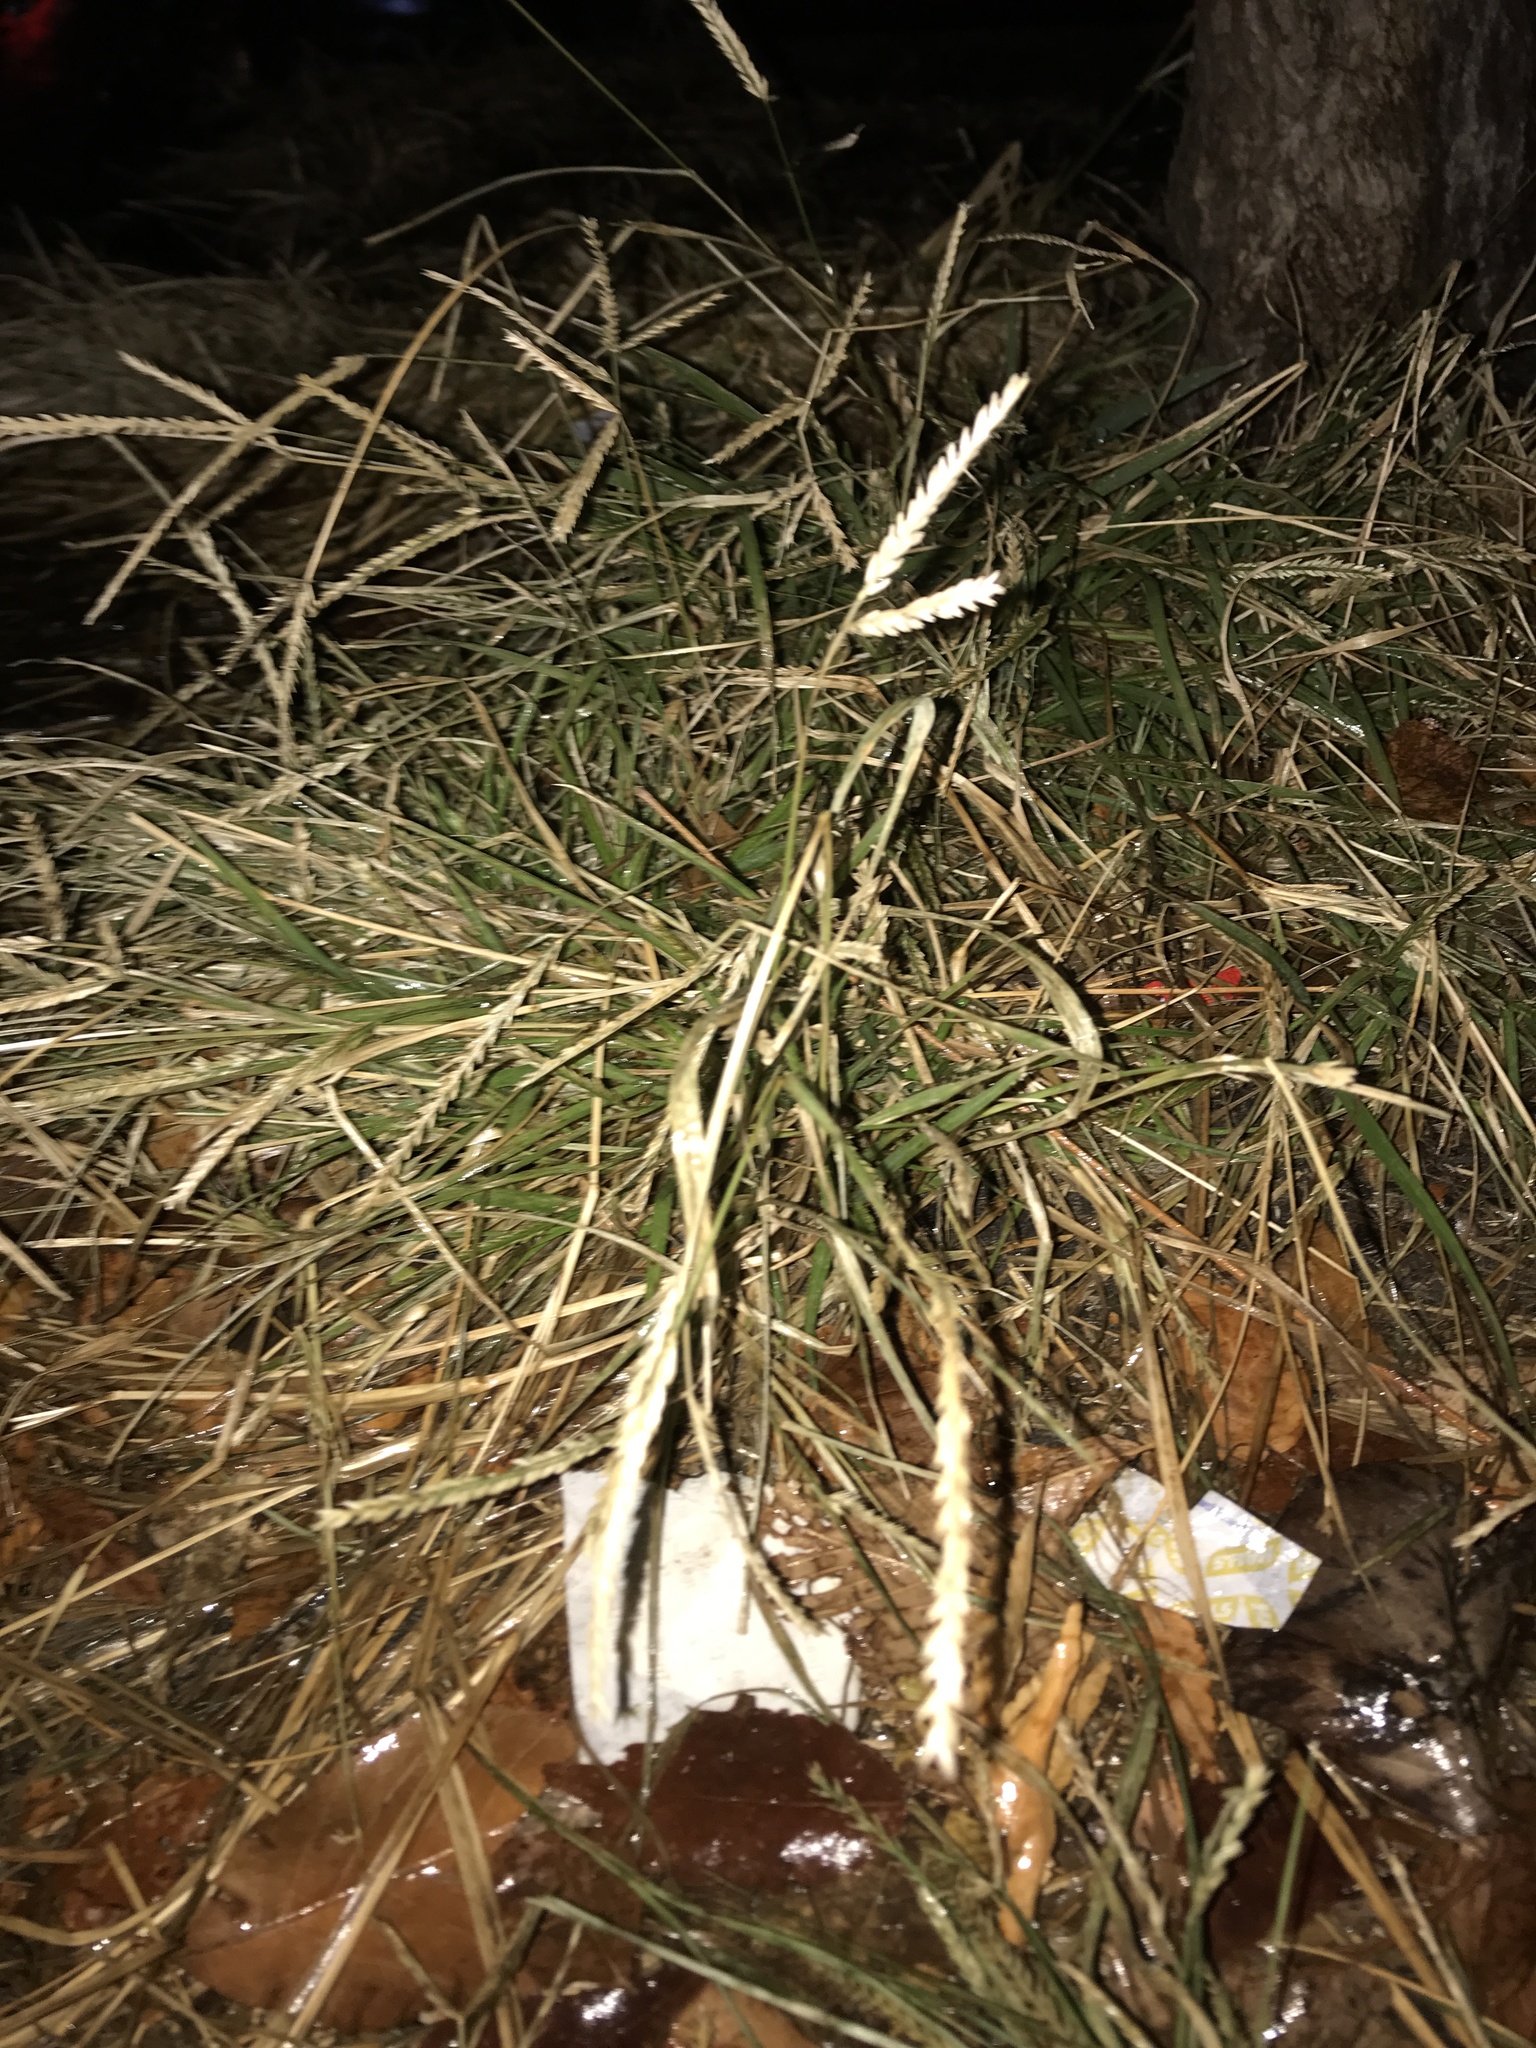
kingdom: Plantae
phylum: Tracheophyta
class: Liliopsida
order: Poales
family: Poaceae
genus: Eleusine
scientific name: Eleusine indica
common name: Yard-grass
